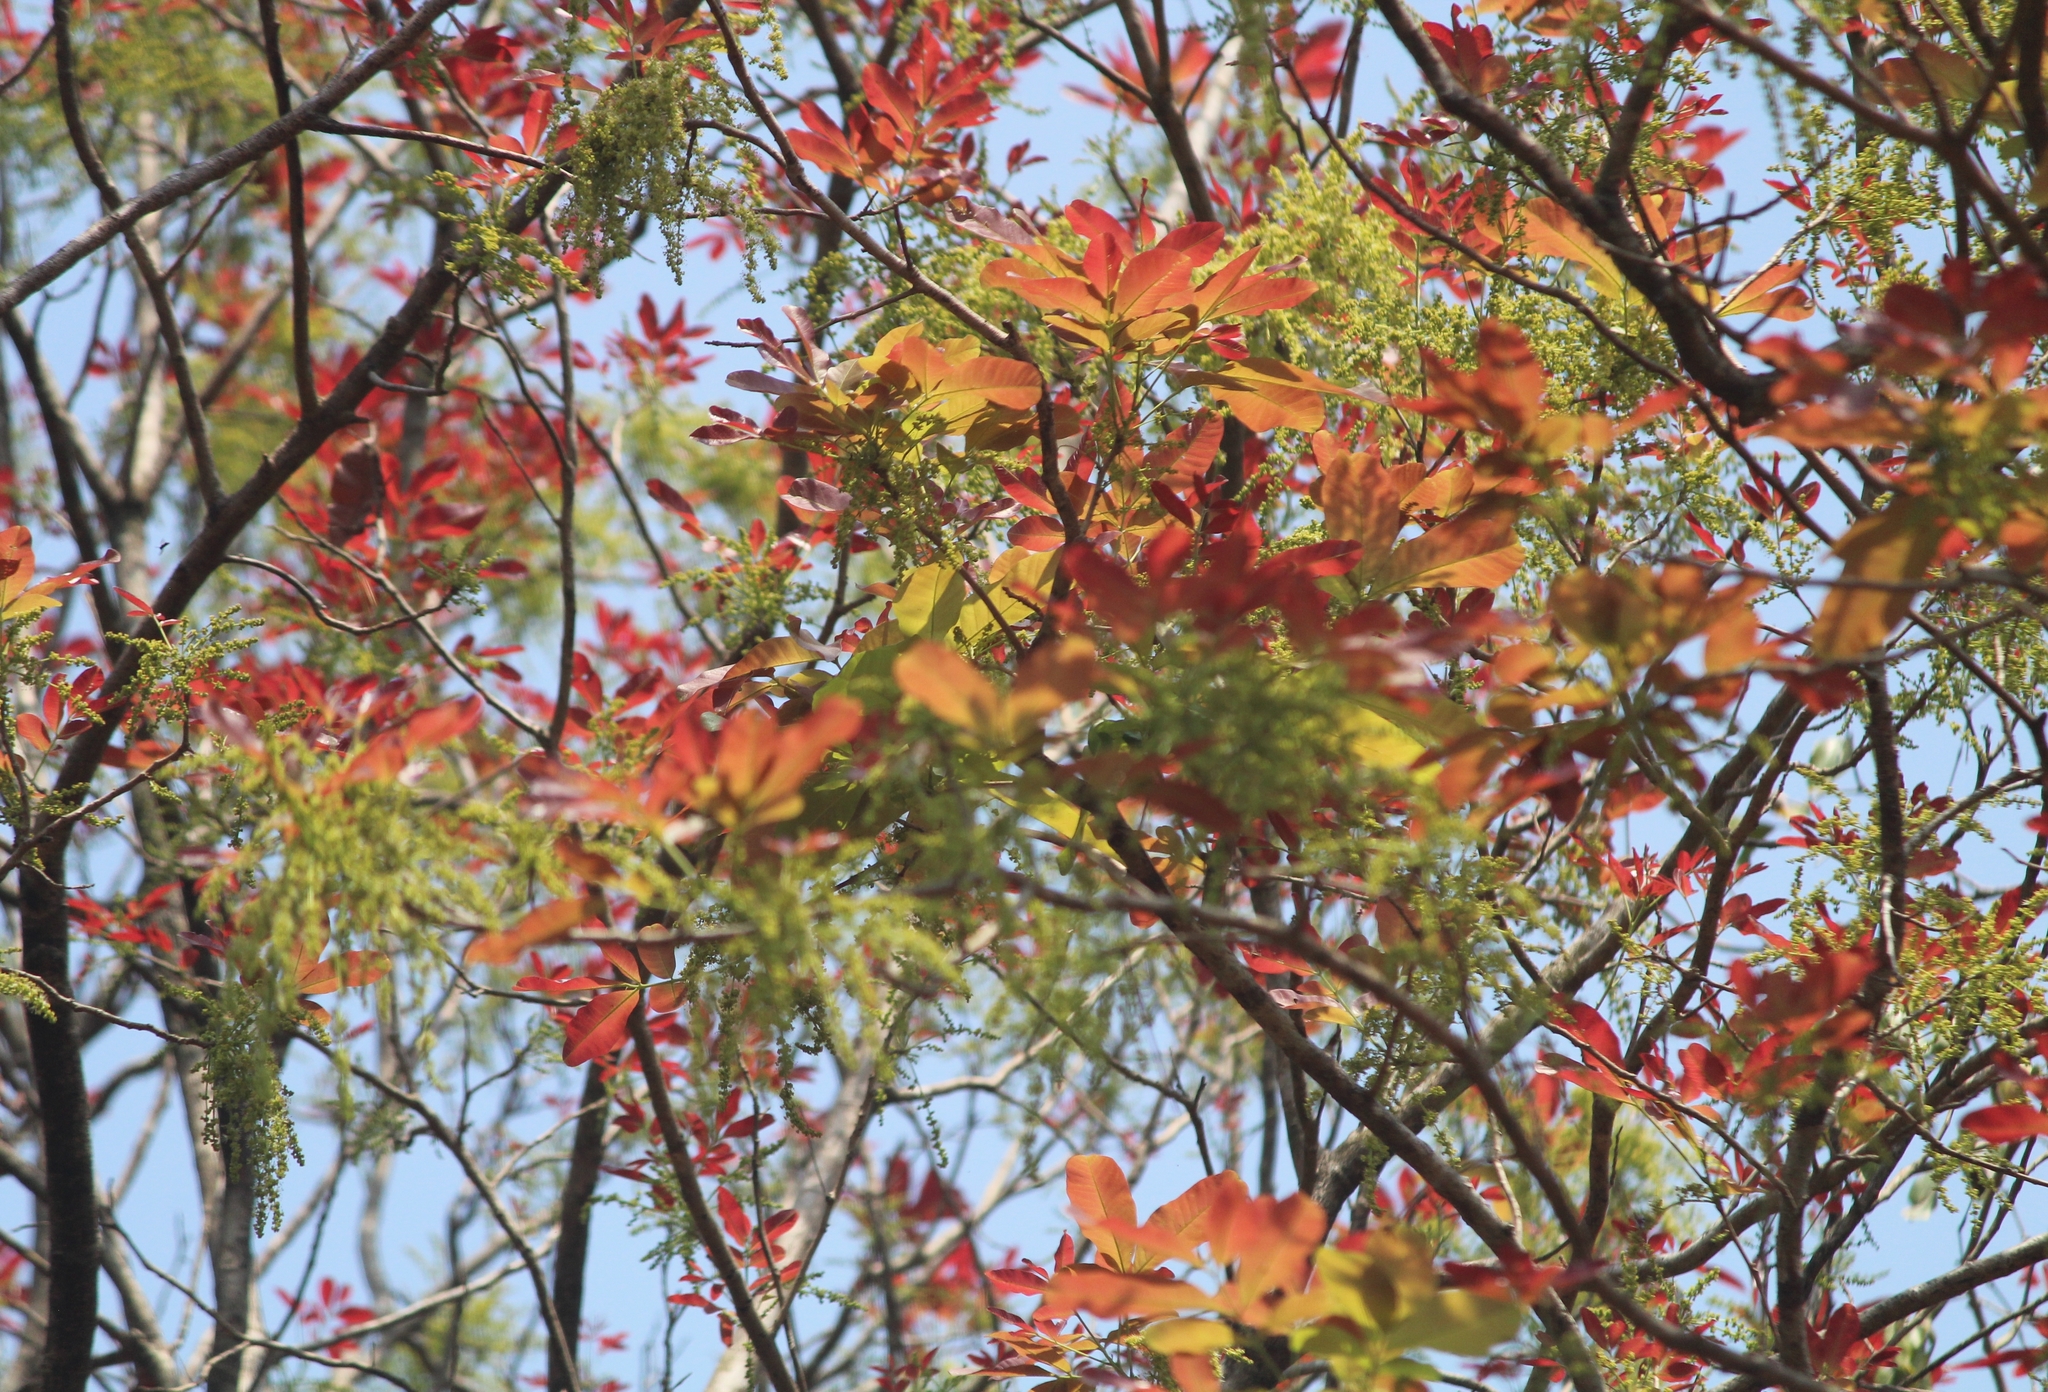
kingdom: Plantae
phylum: Tracheophyta
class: Magnoliopsida
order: Sapindales
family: Sapindaceae
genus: Schleichera
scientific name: Schleichera oleosa
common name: Malay lactree
